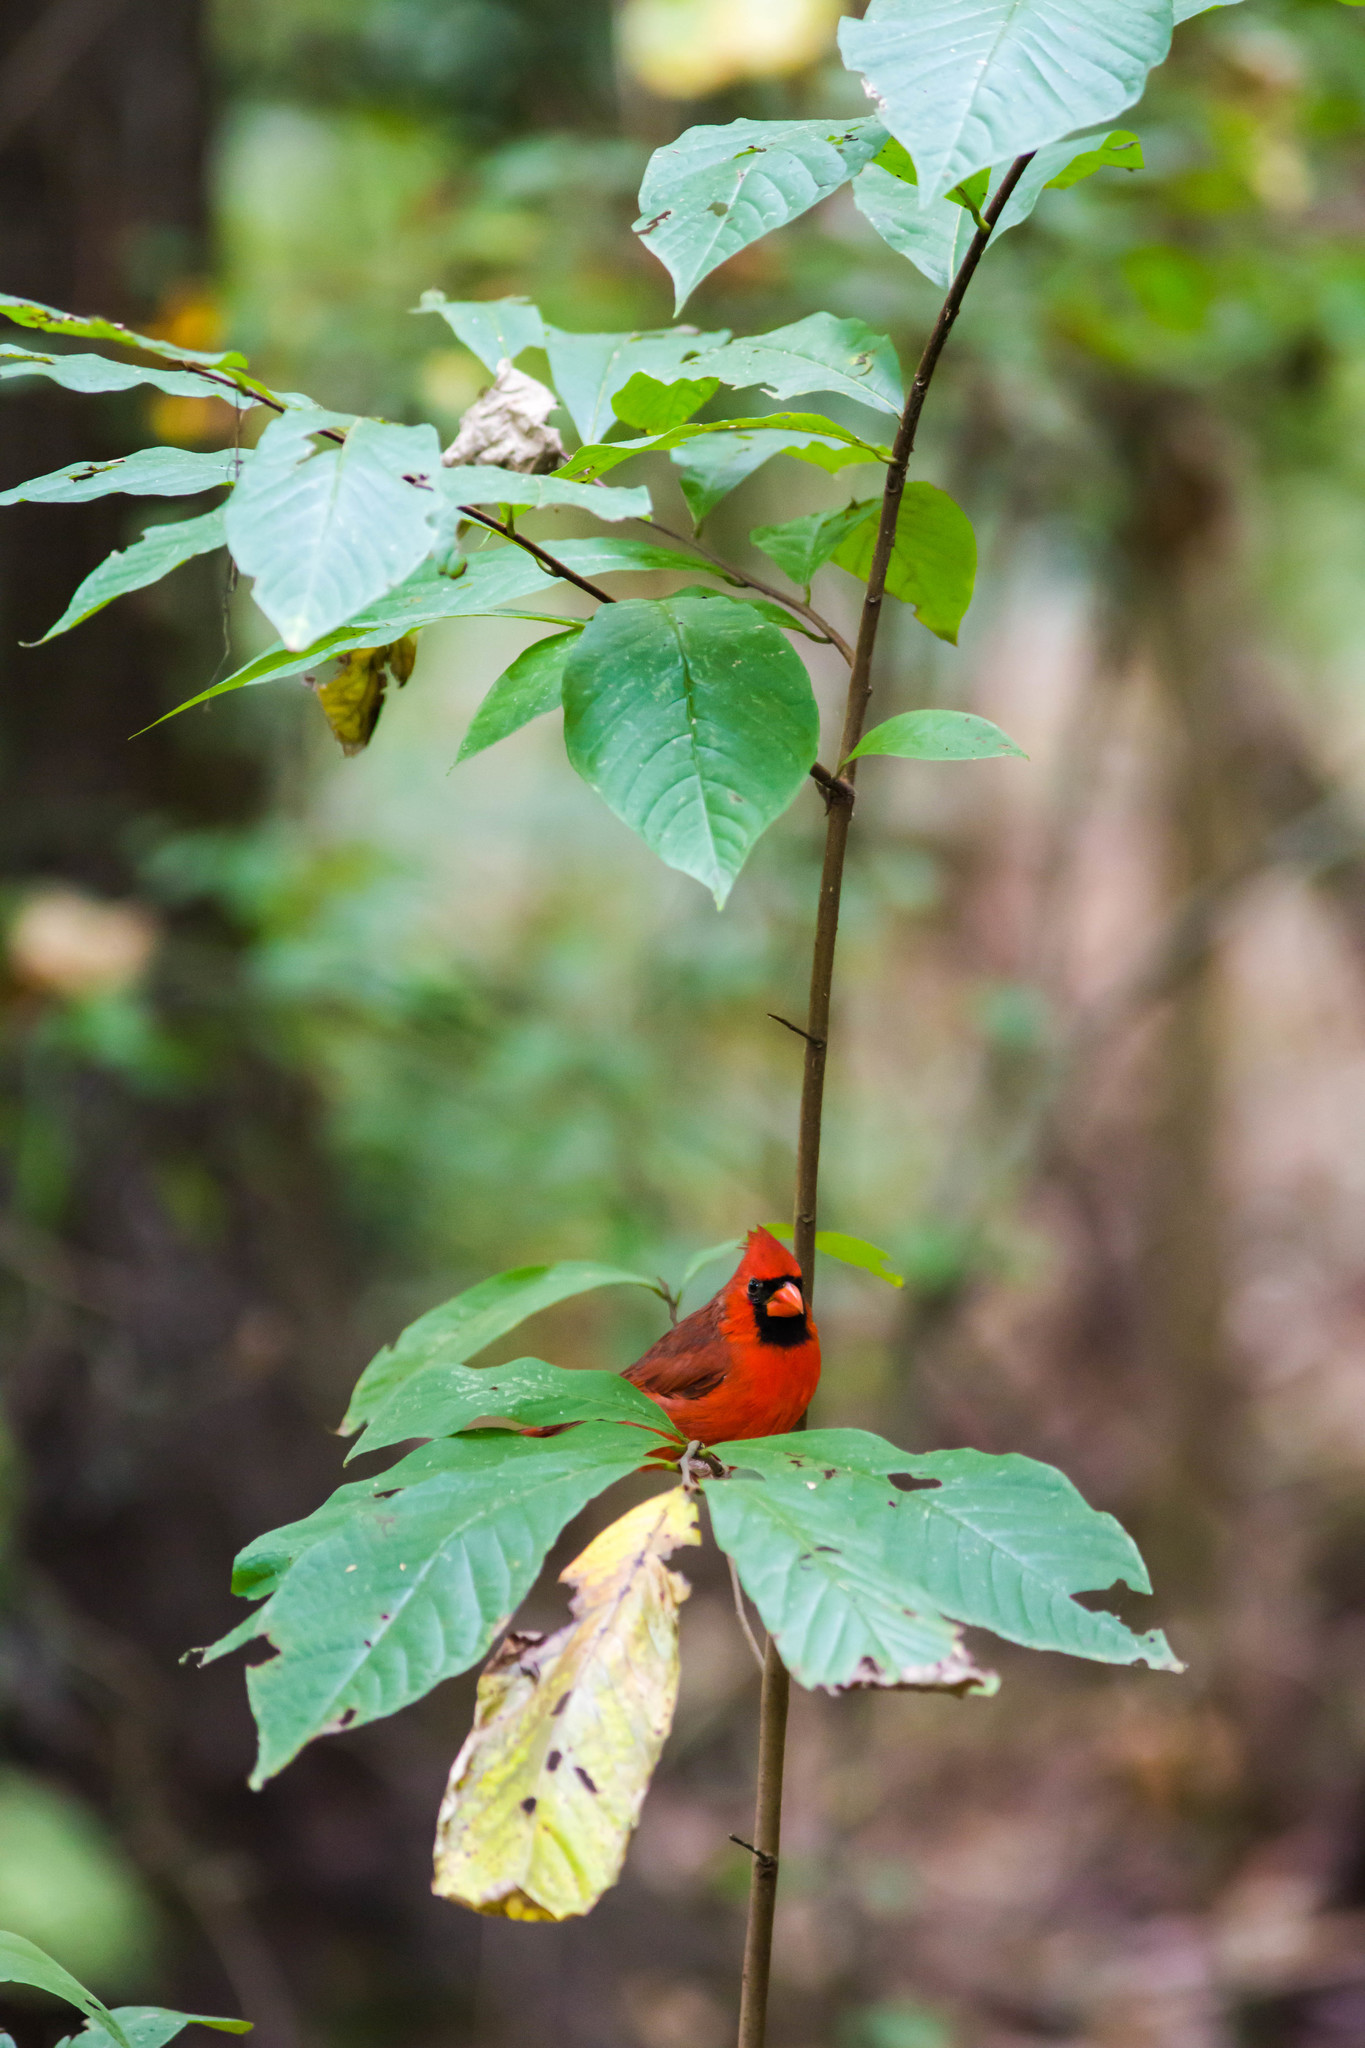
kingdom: Animalia
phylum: Chordata
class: Aves
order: Passeriformes
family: Cardinalidae
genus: Cardinalis
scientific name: Cardinalis cardinalis
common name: Northern cardinal
